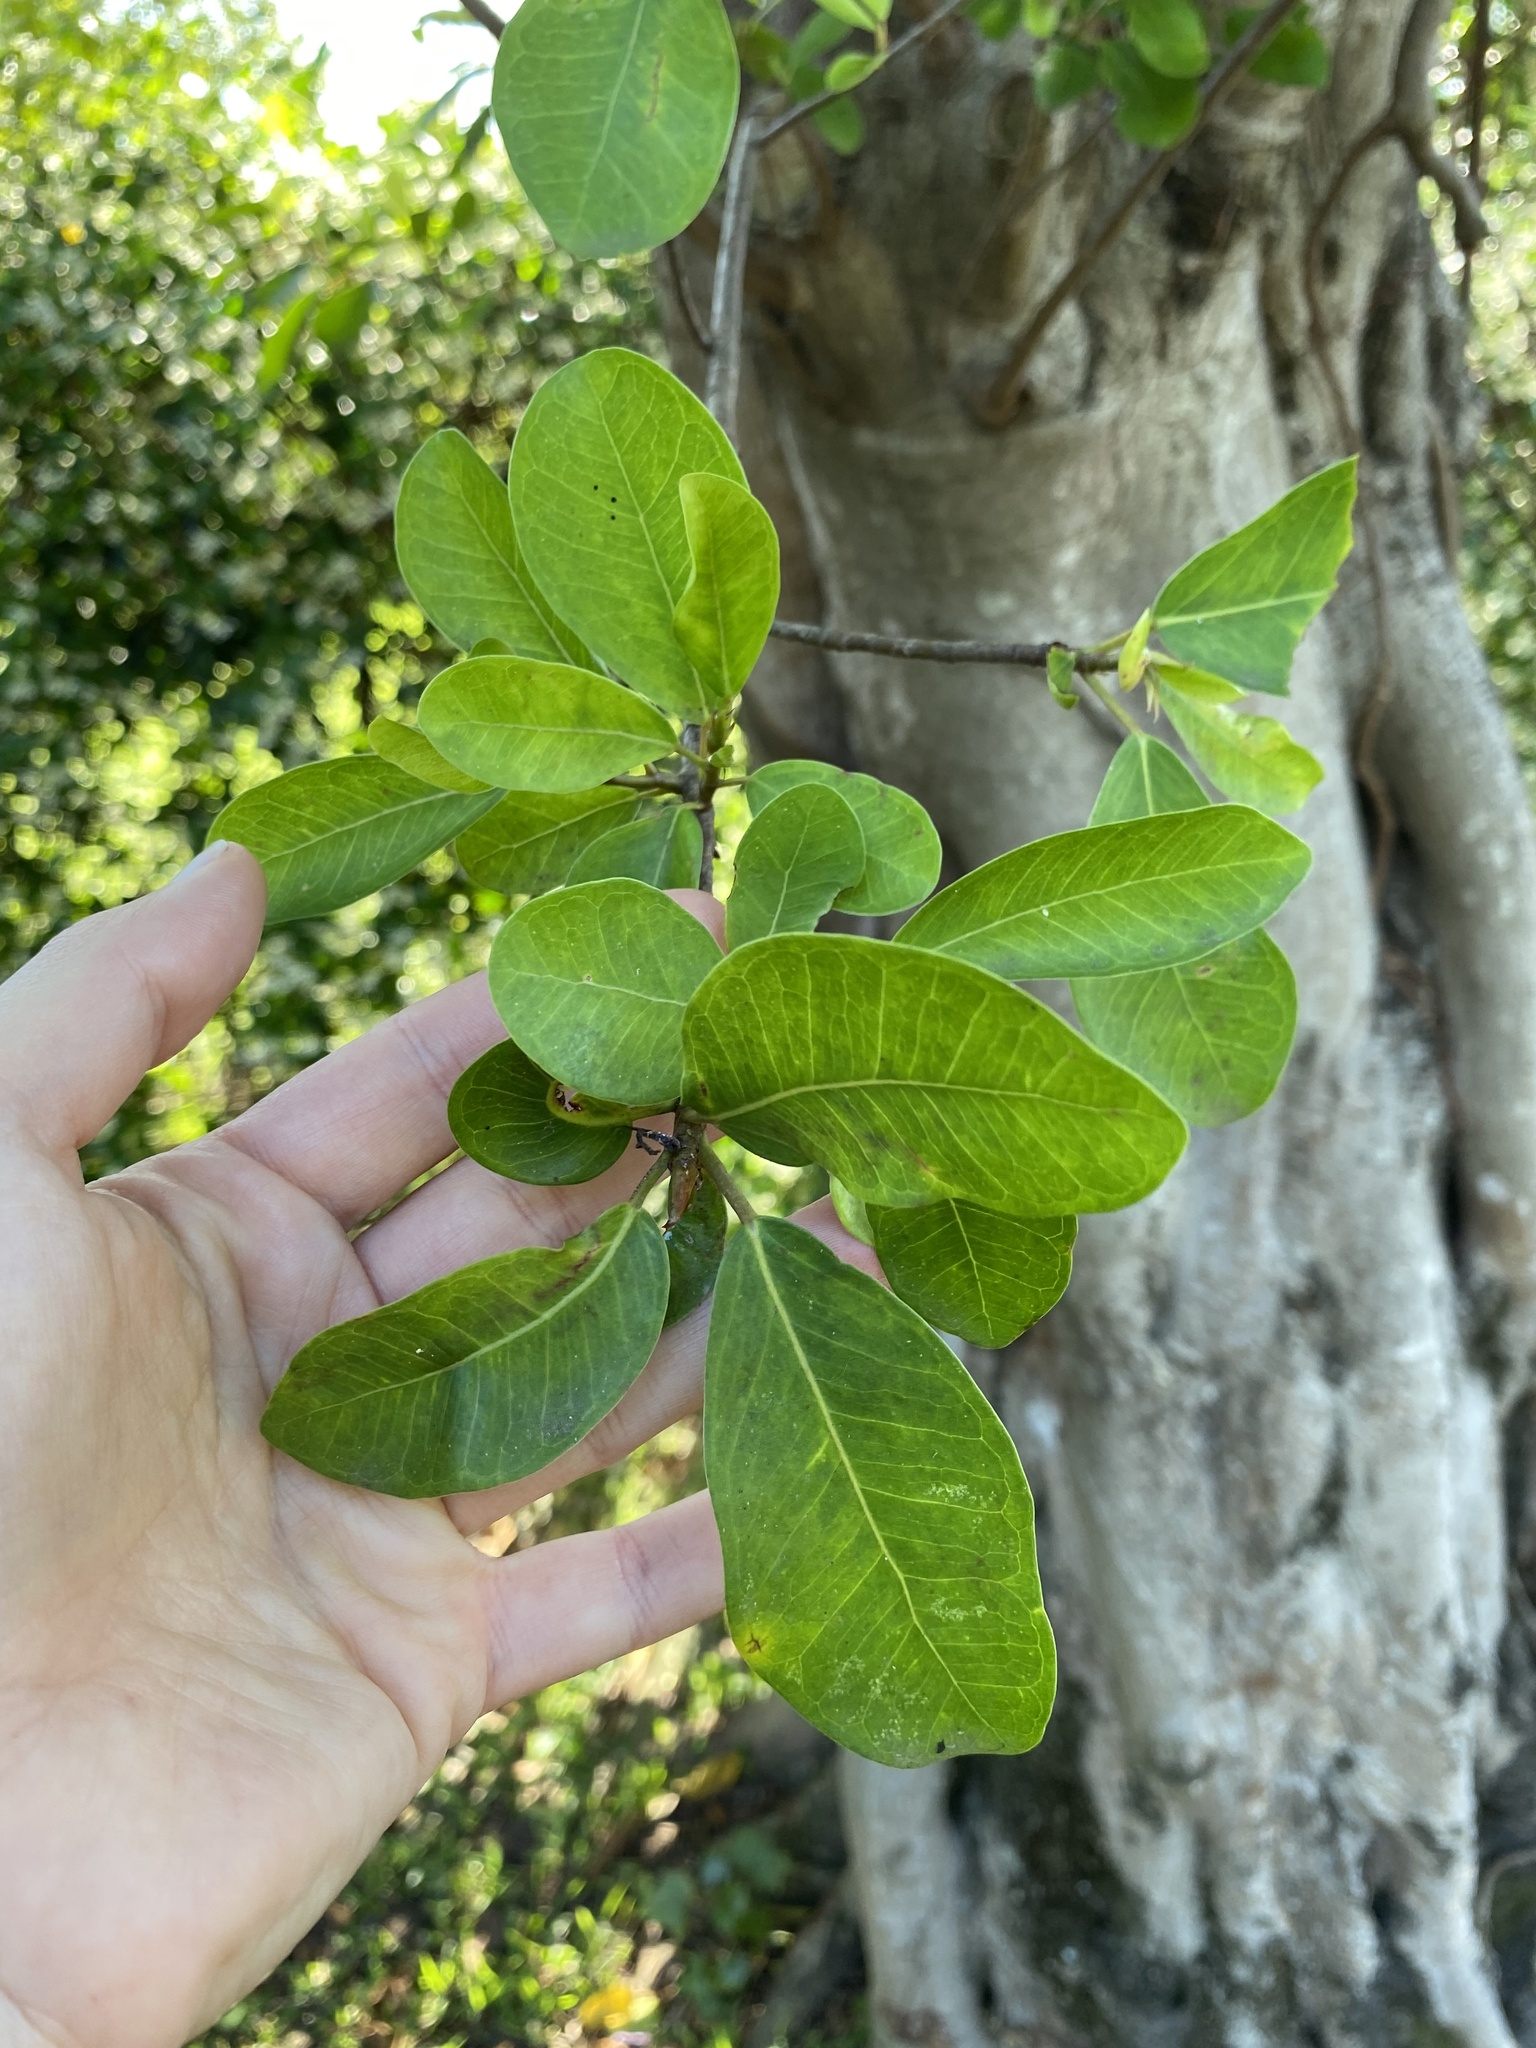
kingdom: Plantae
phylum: Tracheophyta
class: Magnoliopsida
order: Rosales
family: Moraceae
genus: Ficus
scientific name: Ficus thonningii
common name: Fig
